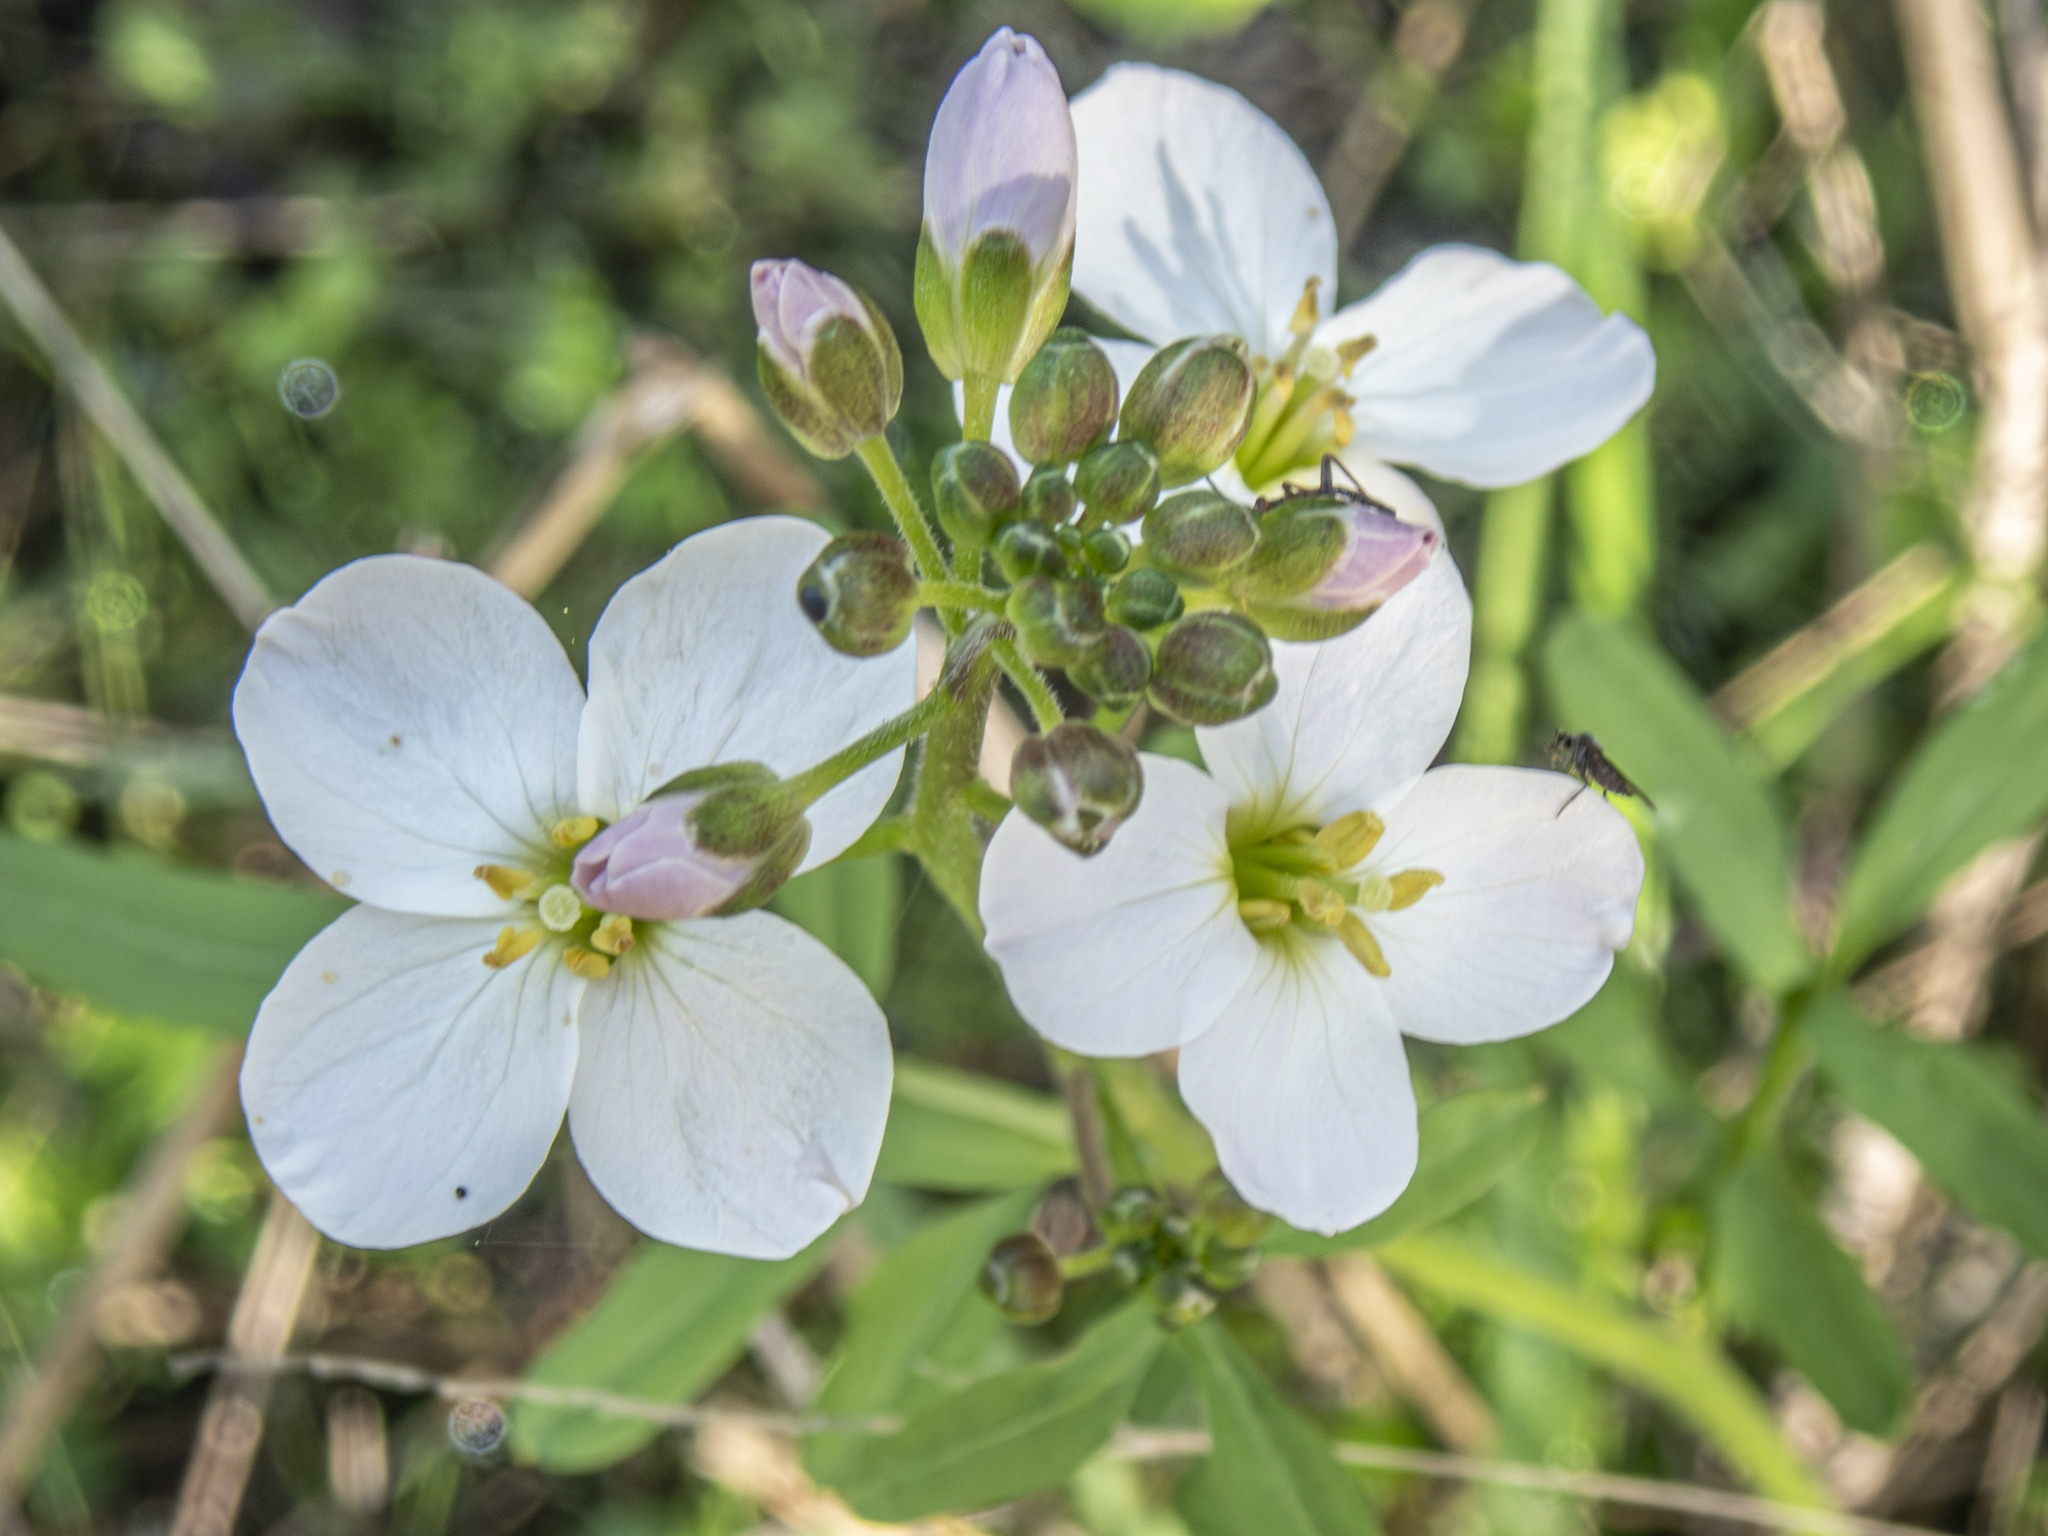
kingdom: Plantae
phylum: Tracheophyta
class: Magnoliopsida
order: Brassicales
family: Brassicaceae
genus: Cardamine
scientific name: Cardamine californica
